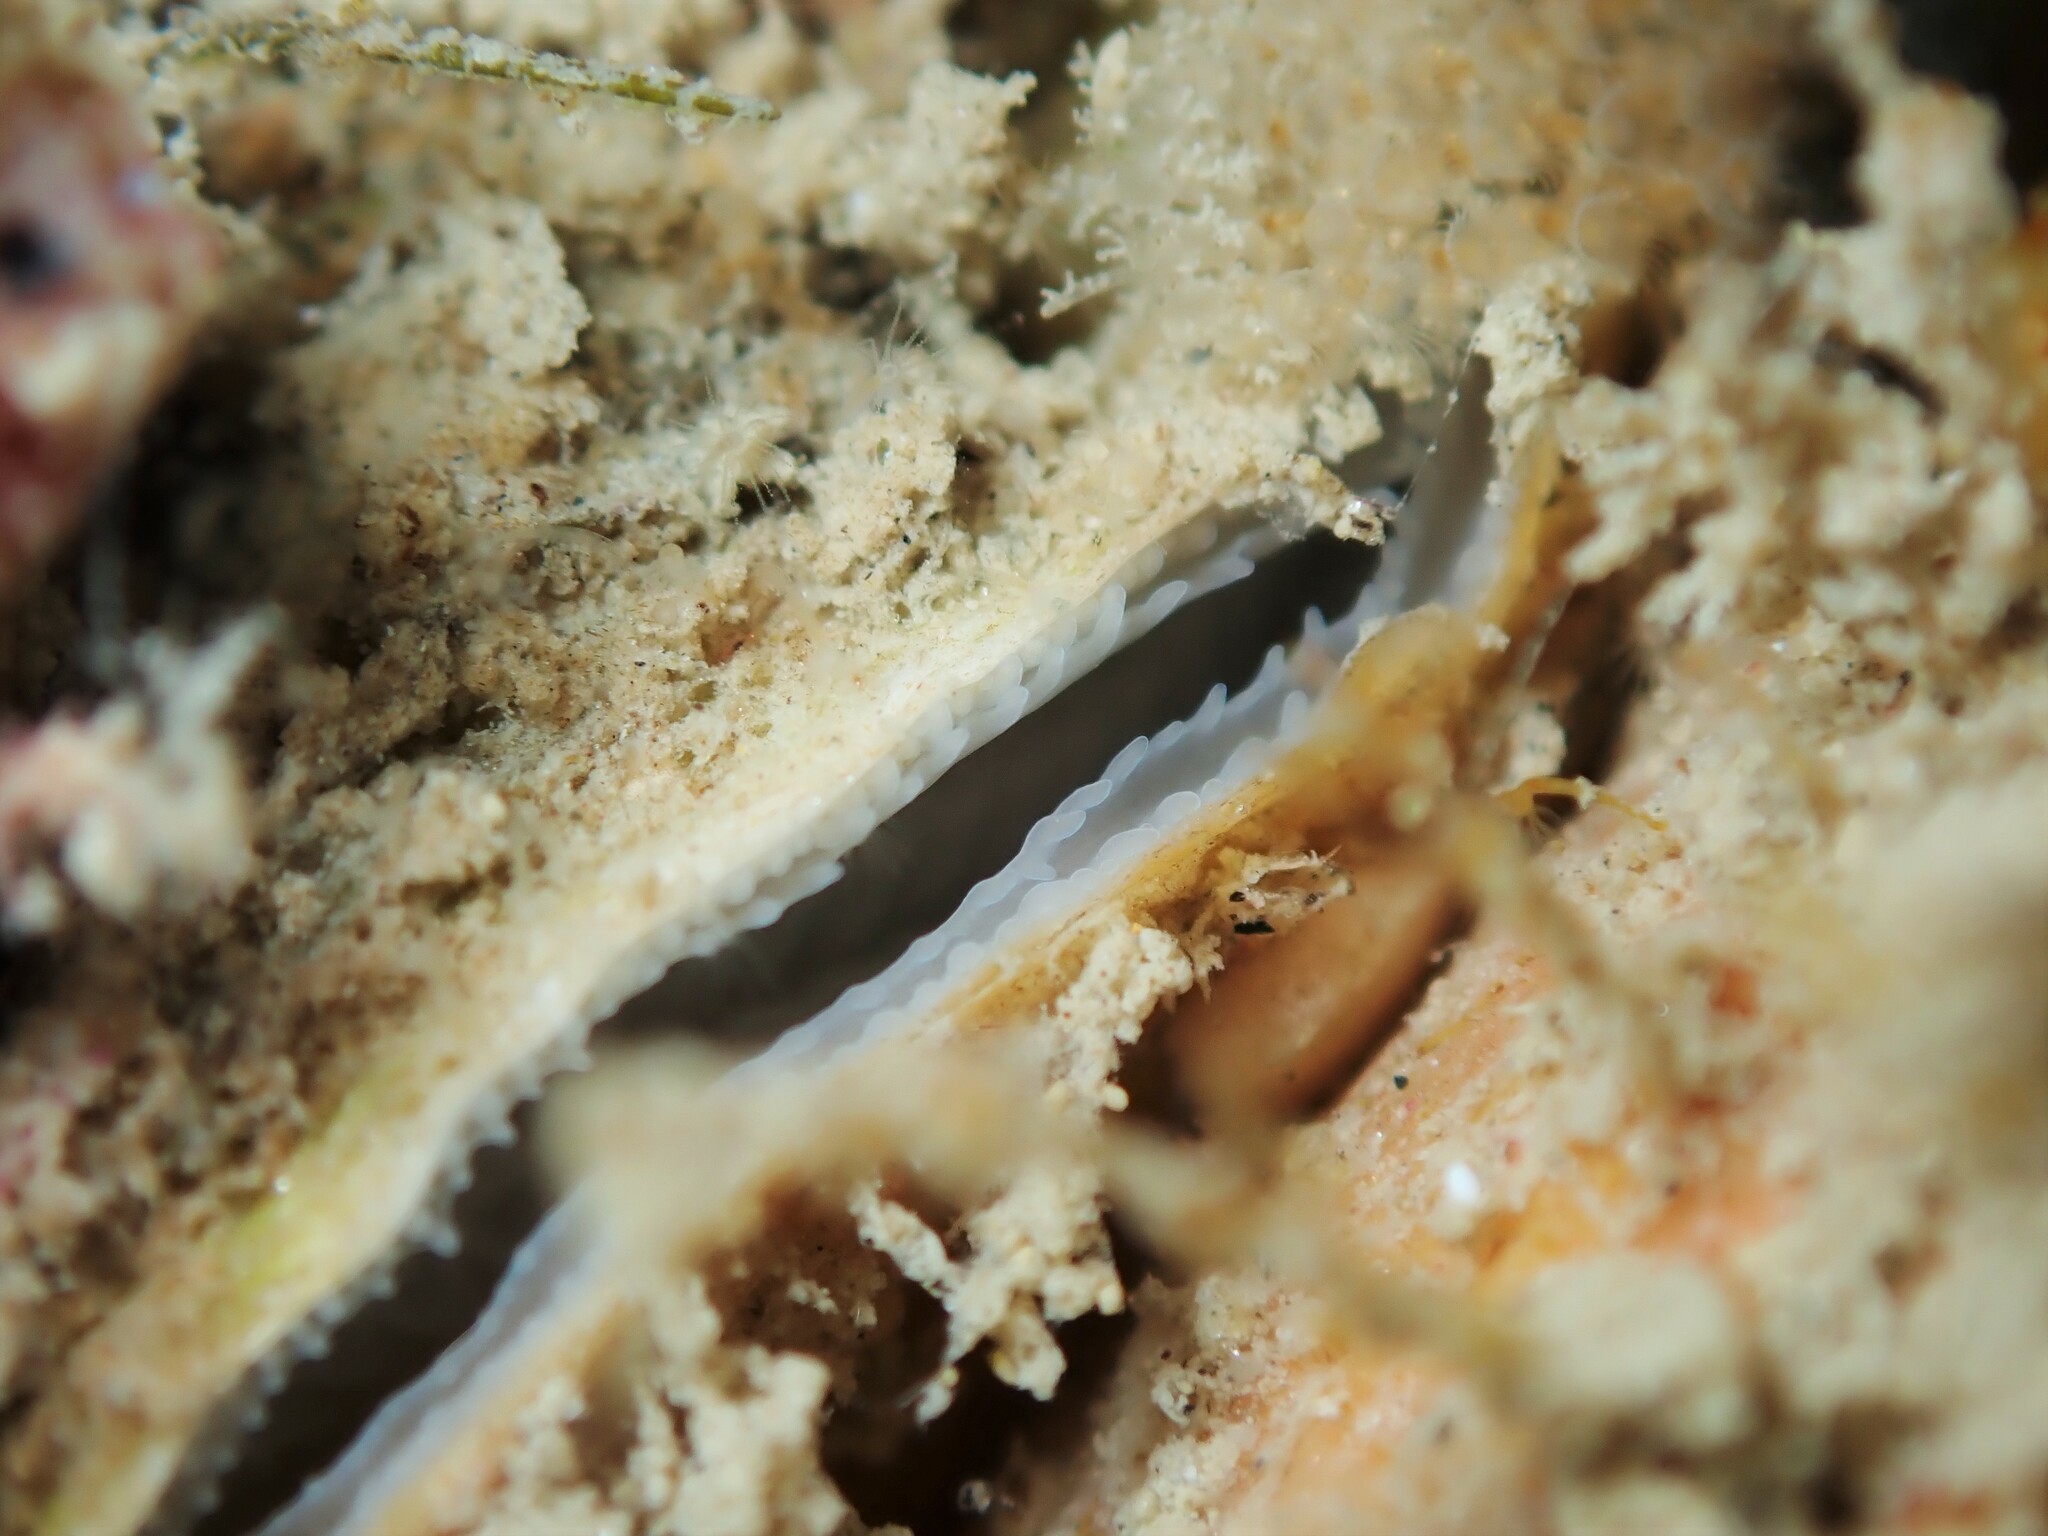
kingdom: Animalia
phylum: Mollusca
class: Bivalvia
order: Pectinida
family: Anomiidae
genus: Anomia
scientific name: Anomia trigonopsis
